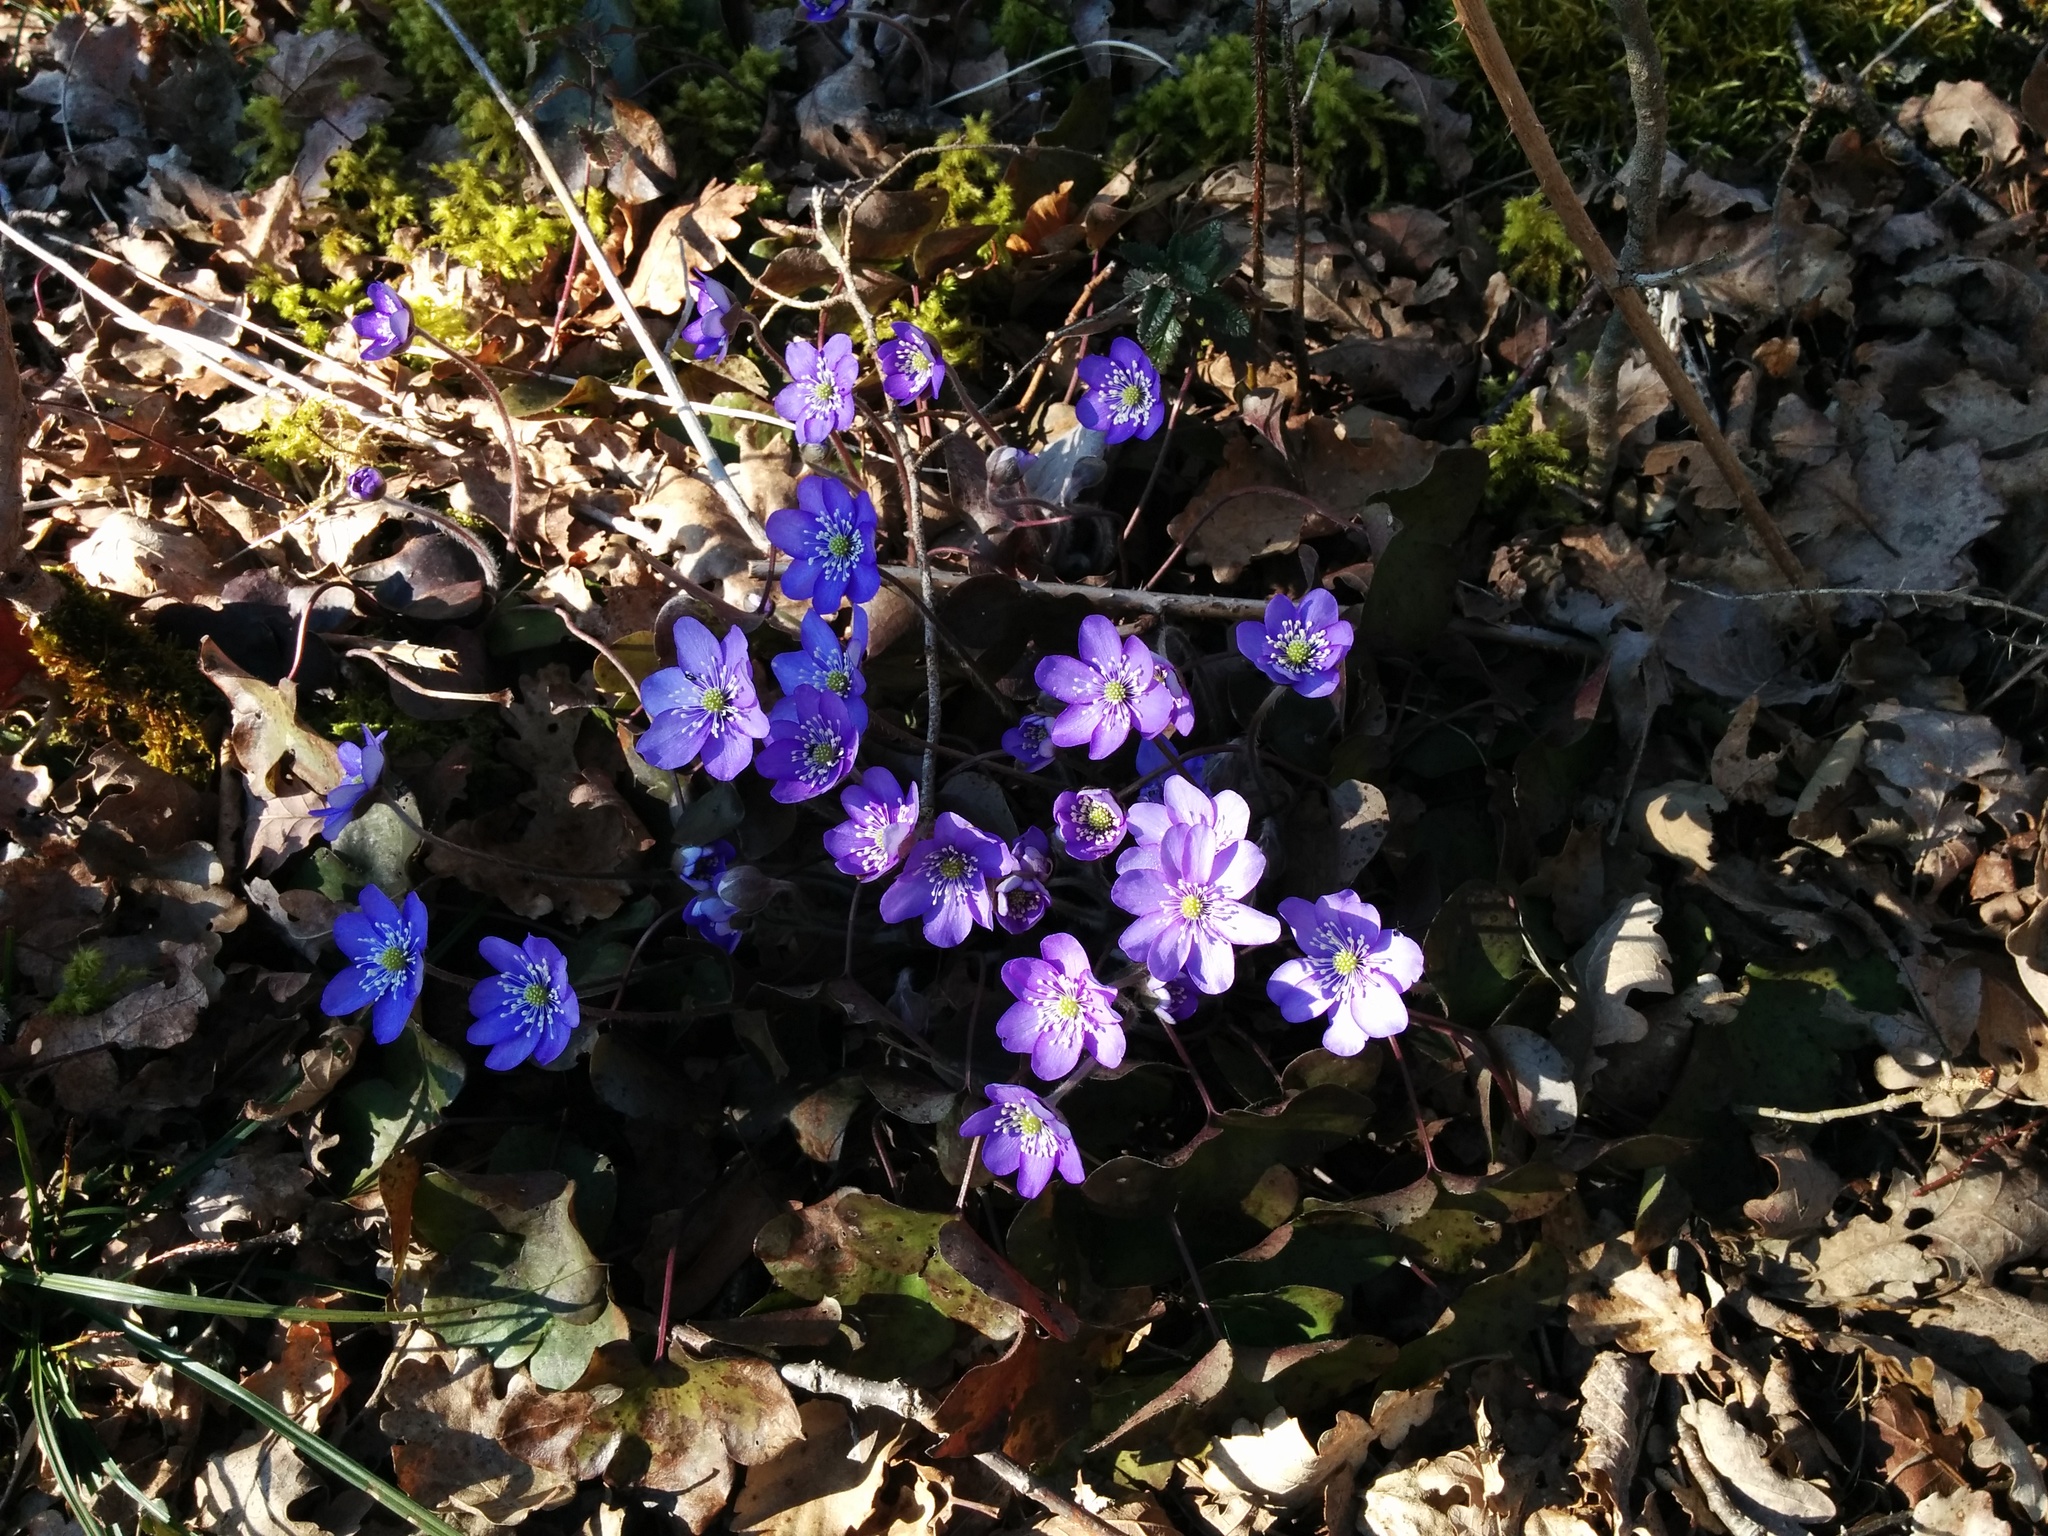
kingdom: Plantae
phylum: Tracheophyta
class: Magnoliopsida
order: Ranunculales
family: Ranunculaceae
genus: Hepatica
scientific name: Hepatica nobilis
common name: Liverleaf
